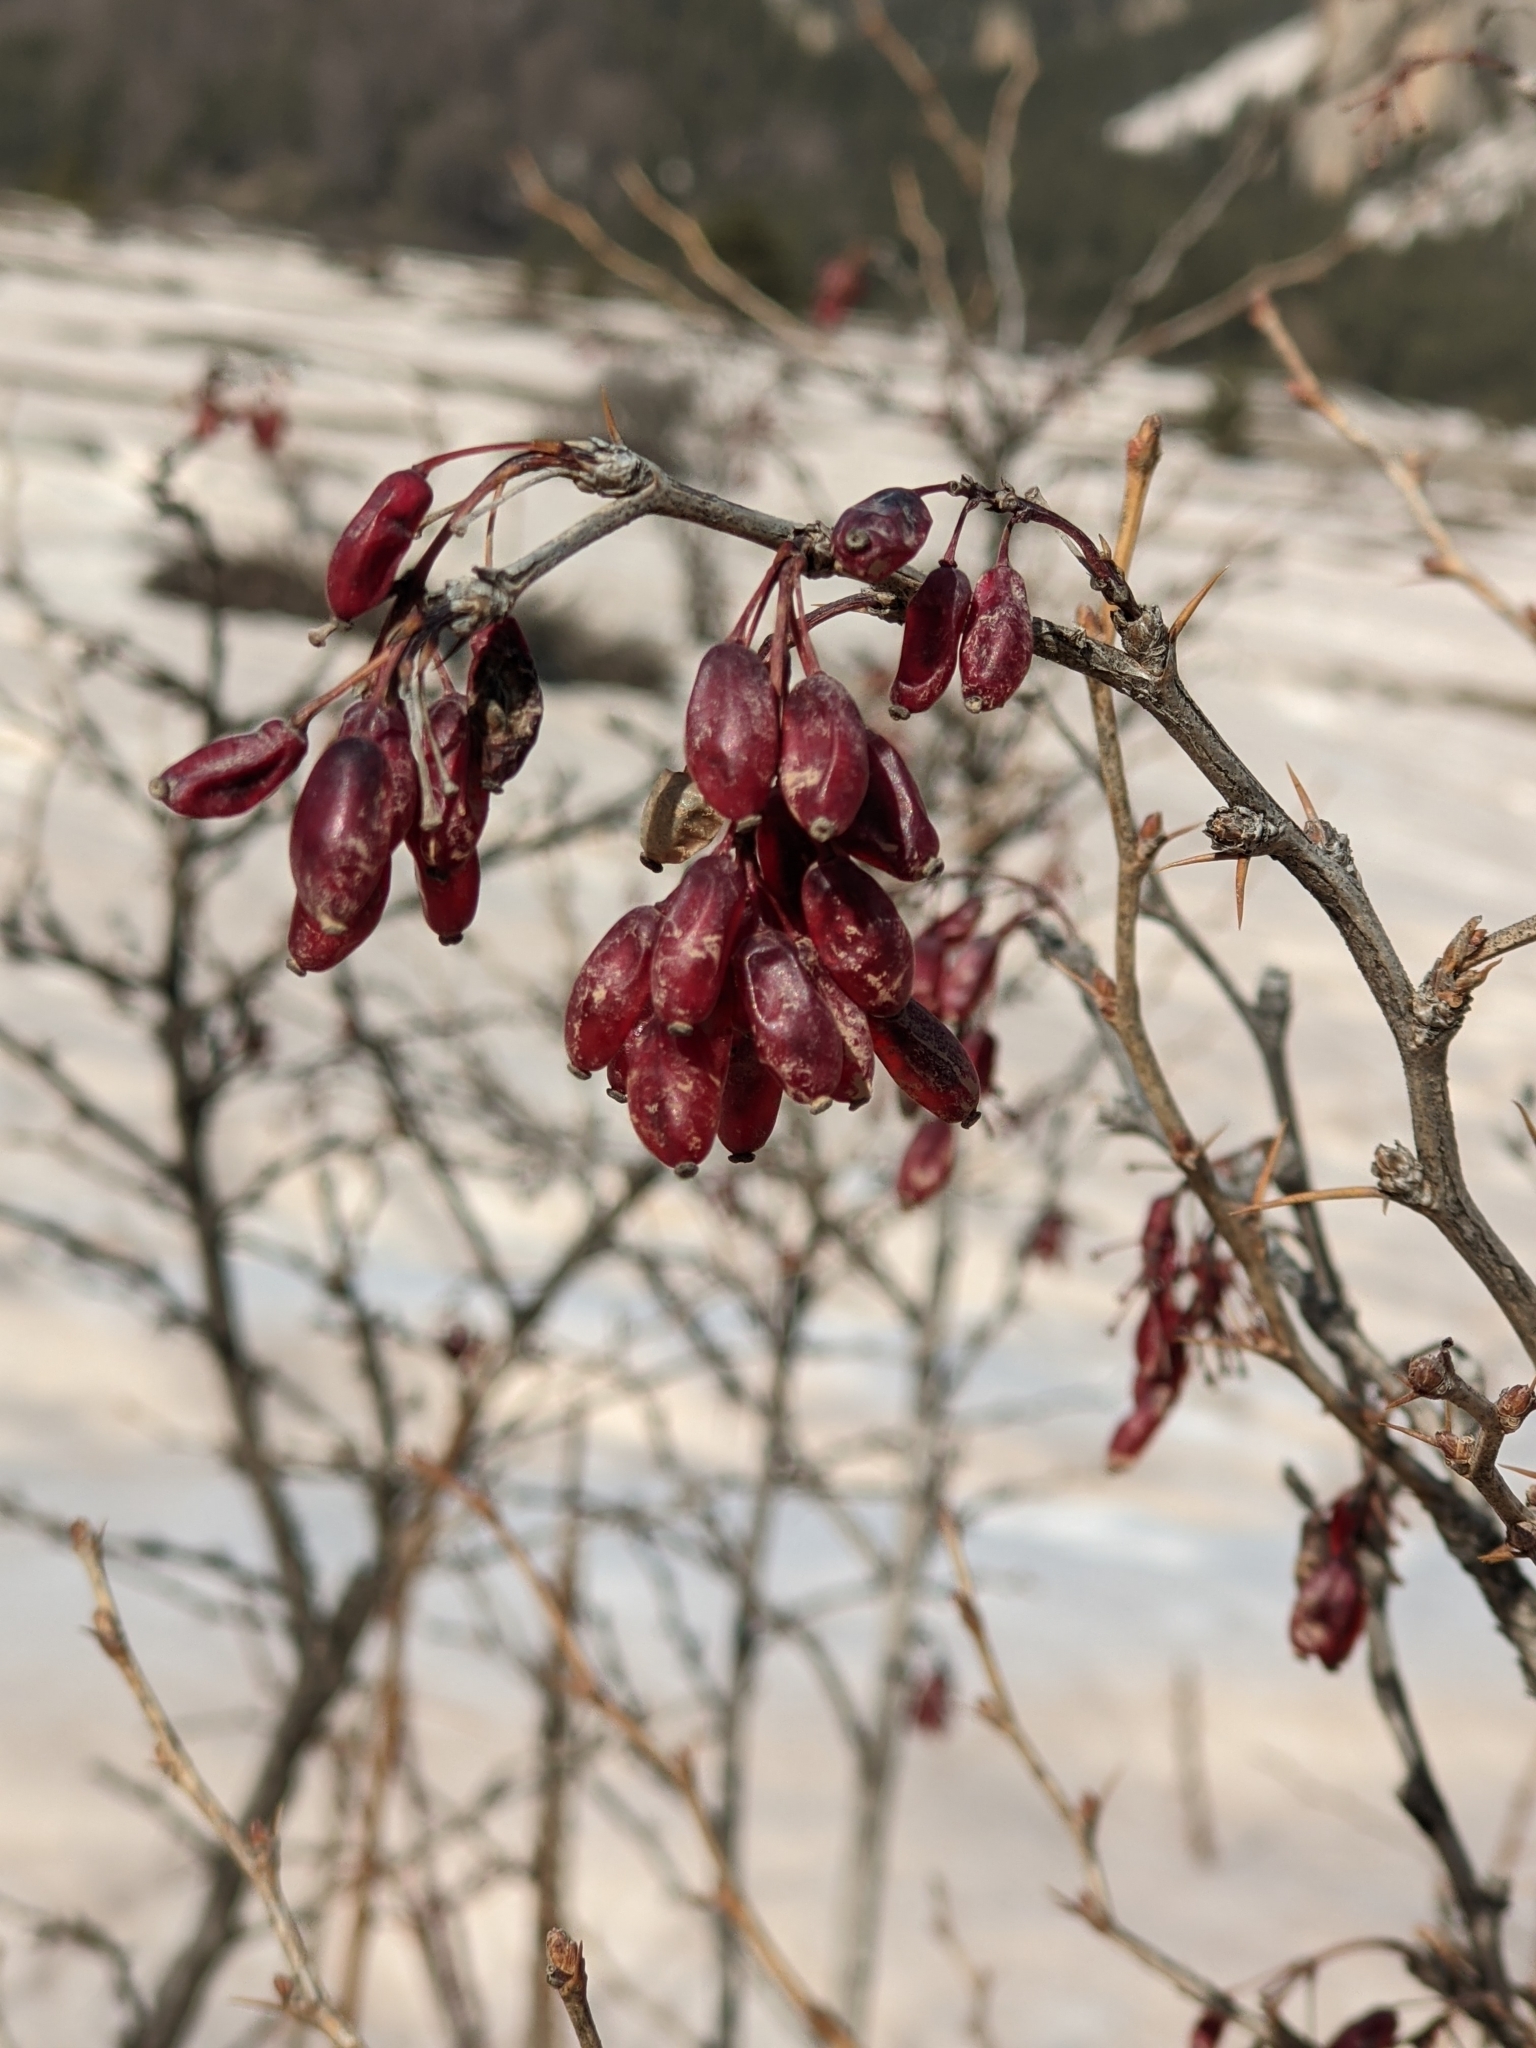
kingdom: Plantae
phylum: Tracheophyta
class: Magnoliopsida
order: Ranunculales
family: Berberidaceae
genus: Berberis
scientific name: Berberis vulgaris
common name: Barberry
